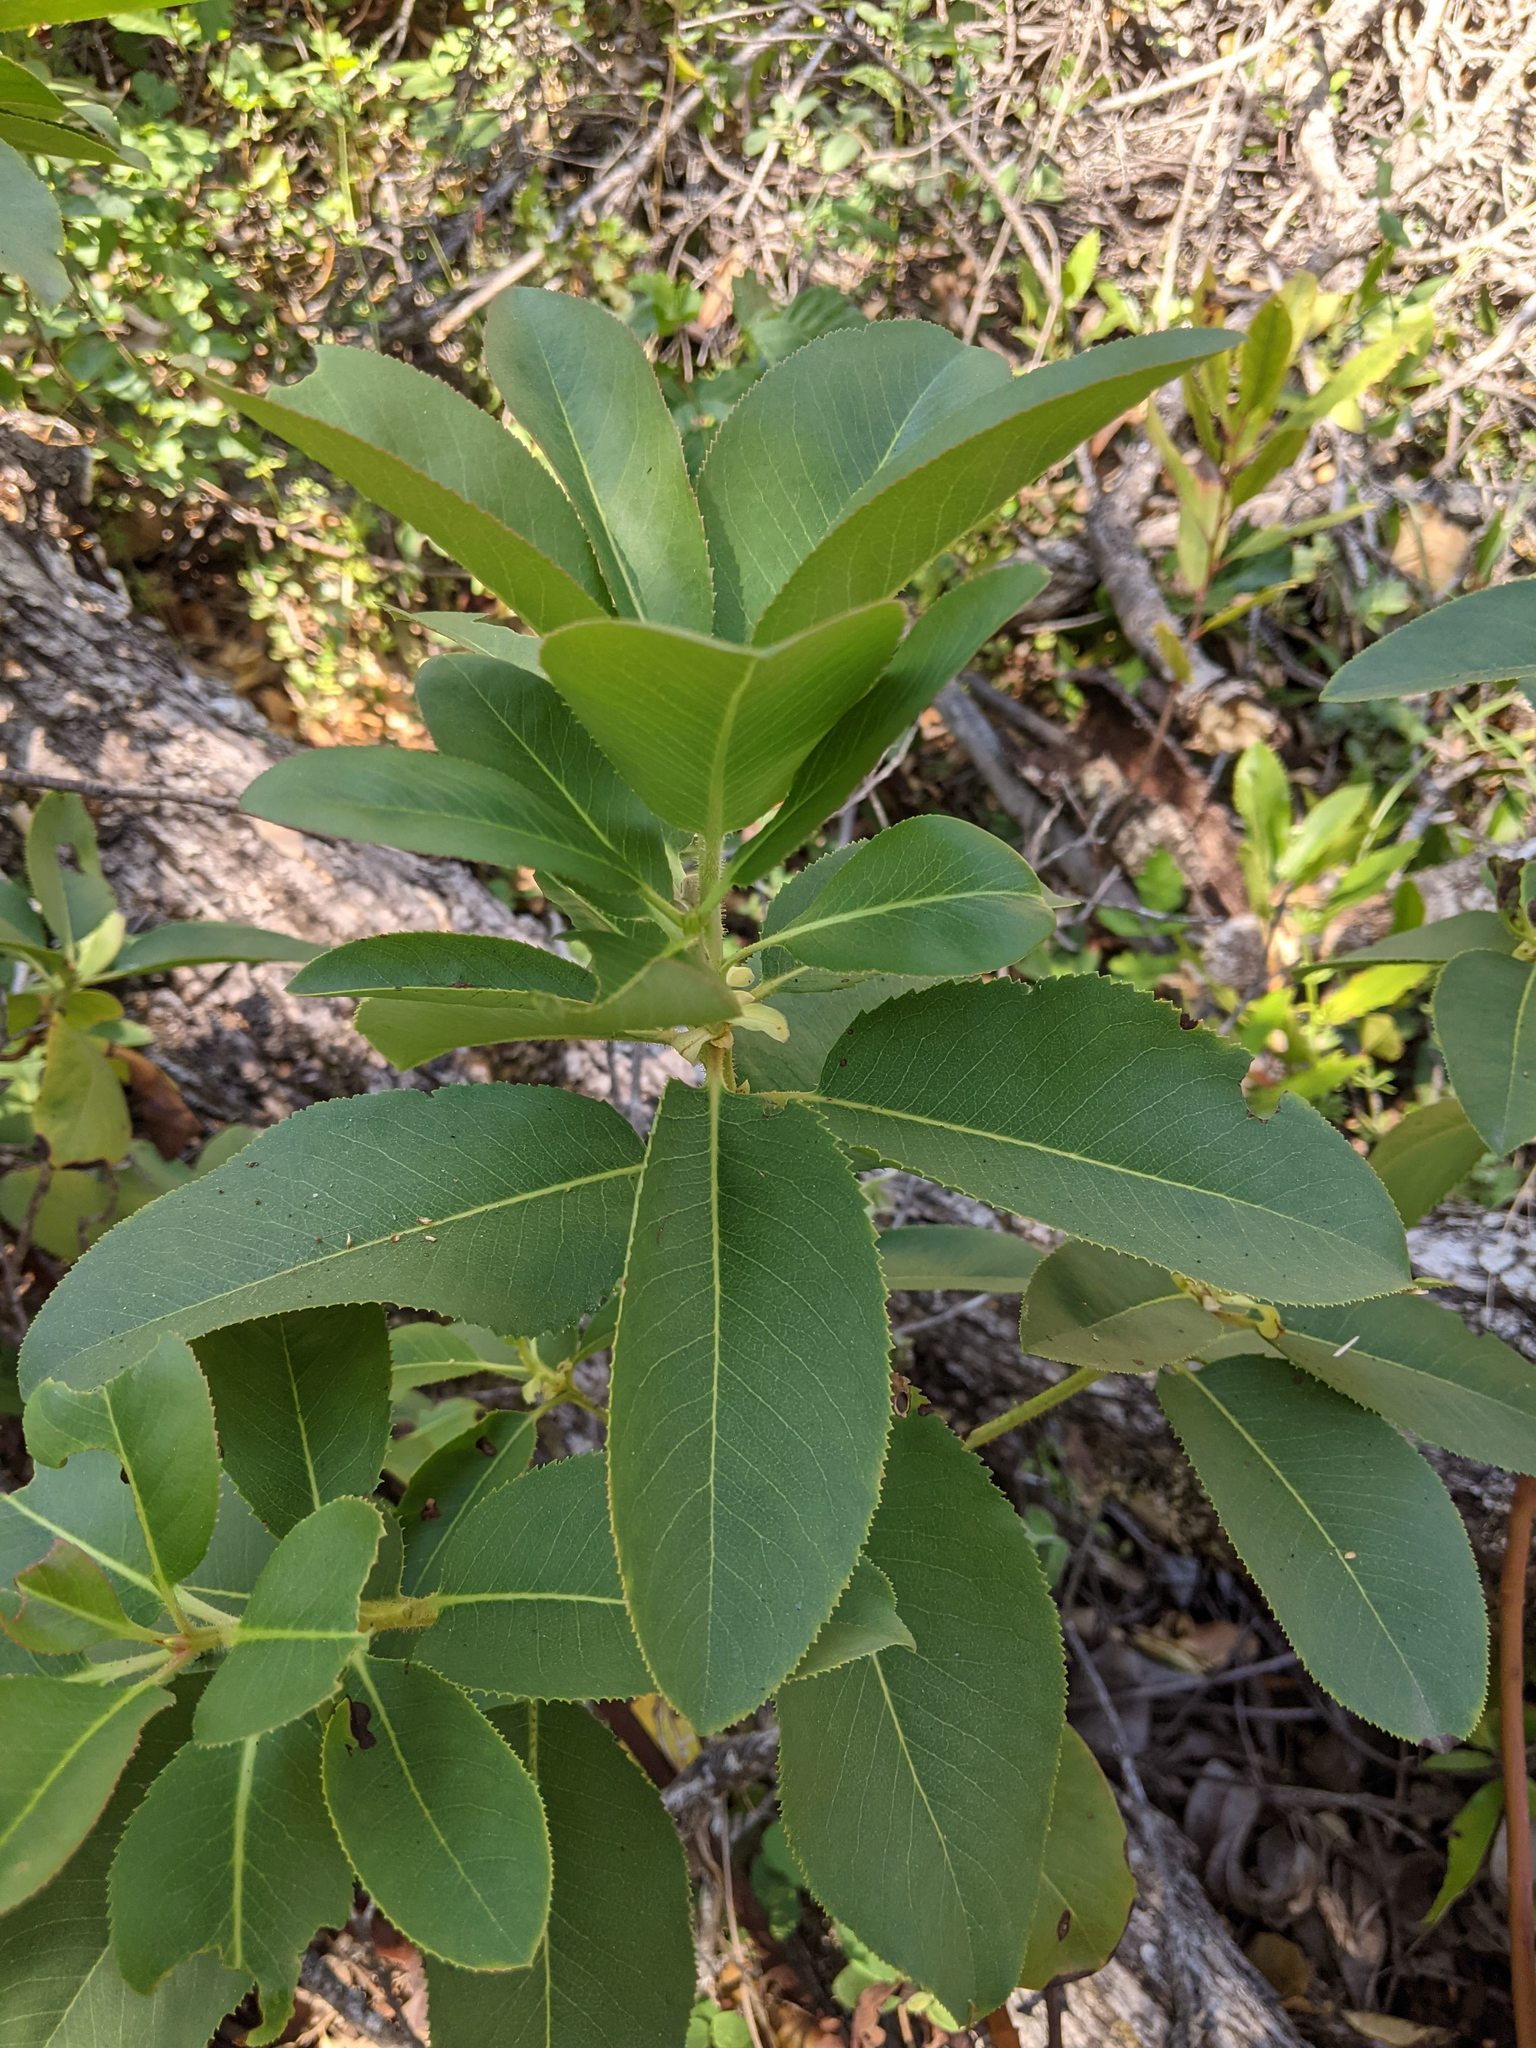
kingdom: Plantae
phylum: Tracheophyta
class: Magnoliopsida
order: Ericales
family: Ericaceae
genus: Arbutus
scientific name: Arbutus menziesii
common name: Pacific madrone
